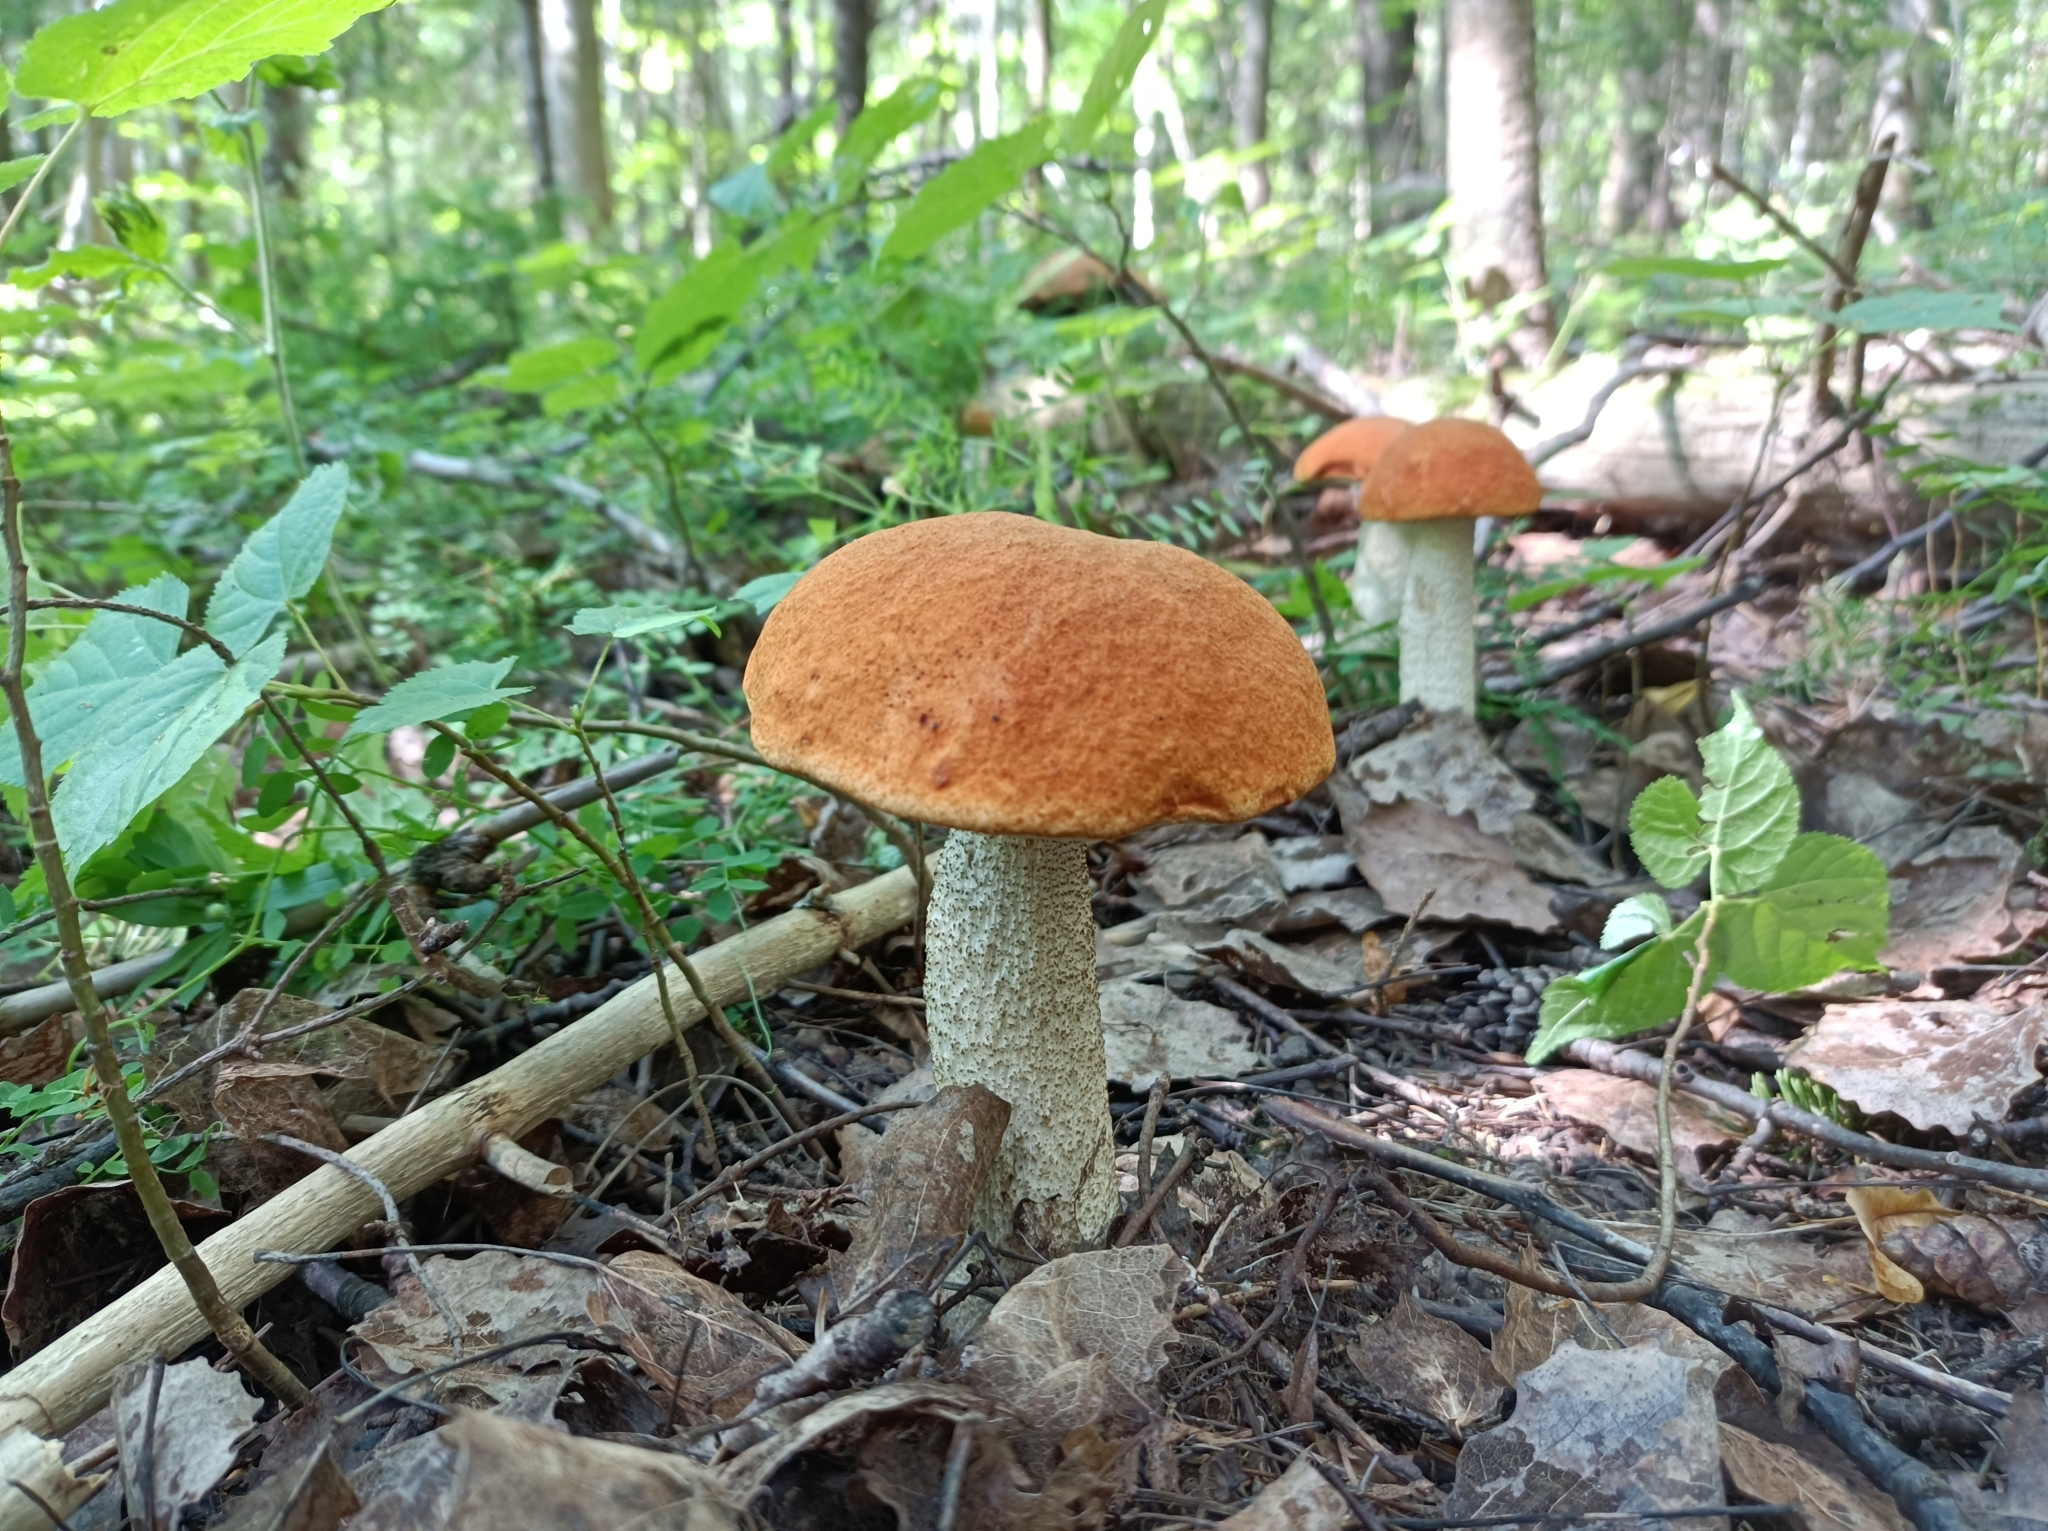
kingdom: Fungi
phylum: Basidiomycota
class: Agaricomycetes
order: Boletales
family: Boletaceae
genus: Leccinum
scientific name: Leccinum aurantiacum
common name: Orange bolete
